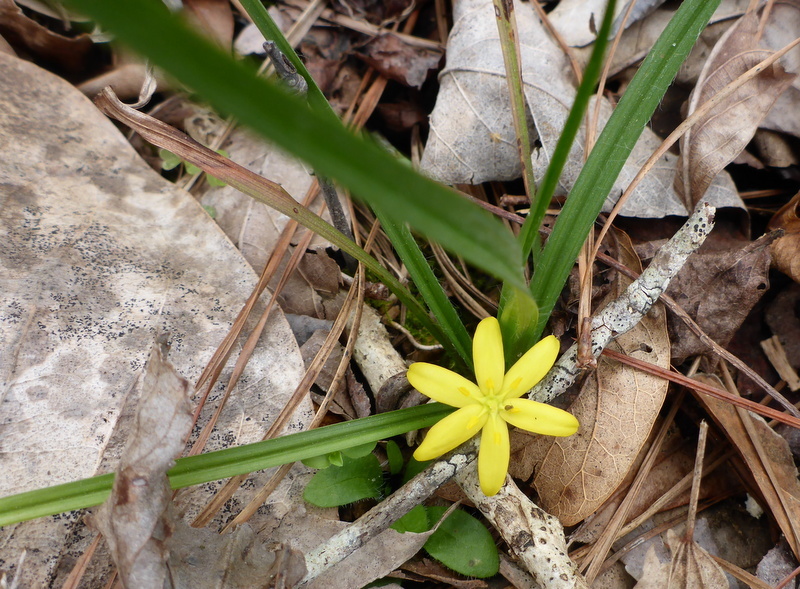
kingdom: Plantae
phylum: Tracheophyta
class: Liliopsida
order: Asparagales
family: Hypoxidaceae
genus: Hypoxis
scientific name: Hypoxis curtissii
